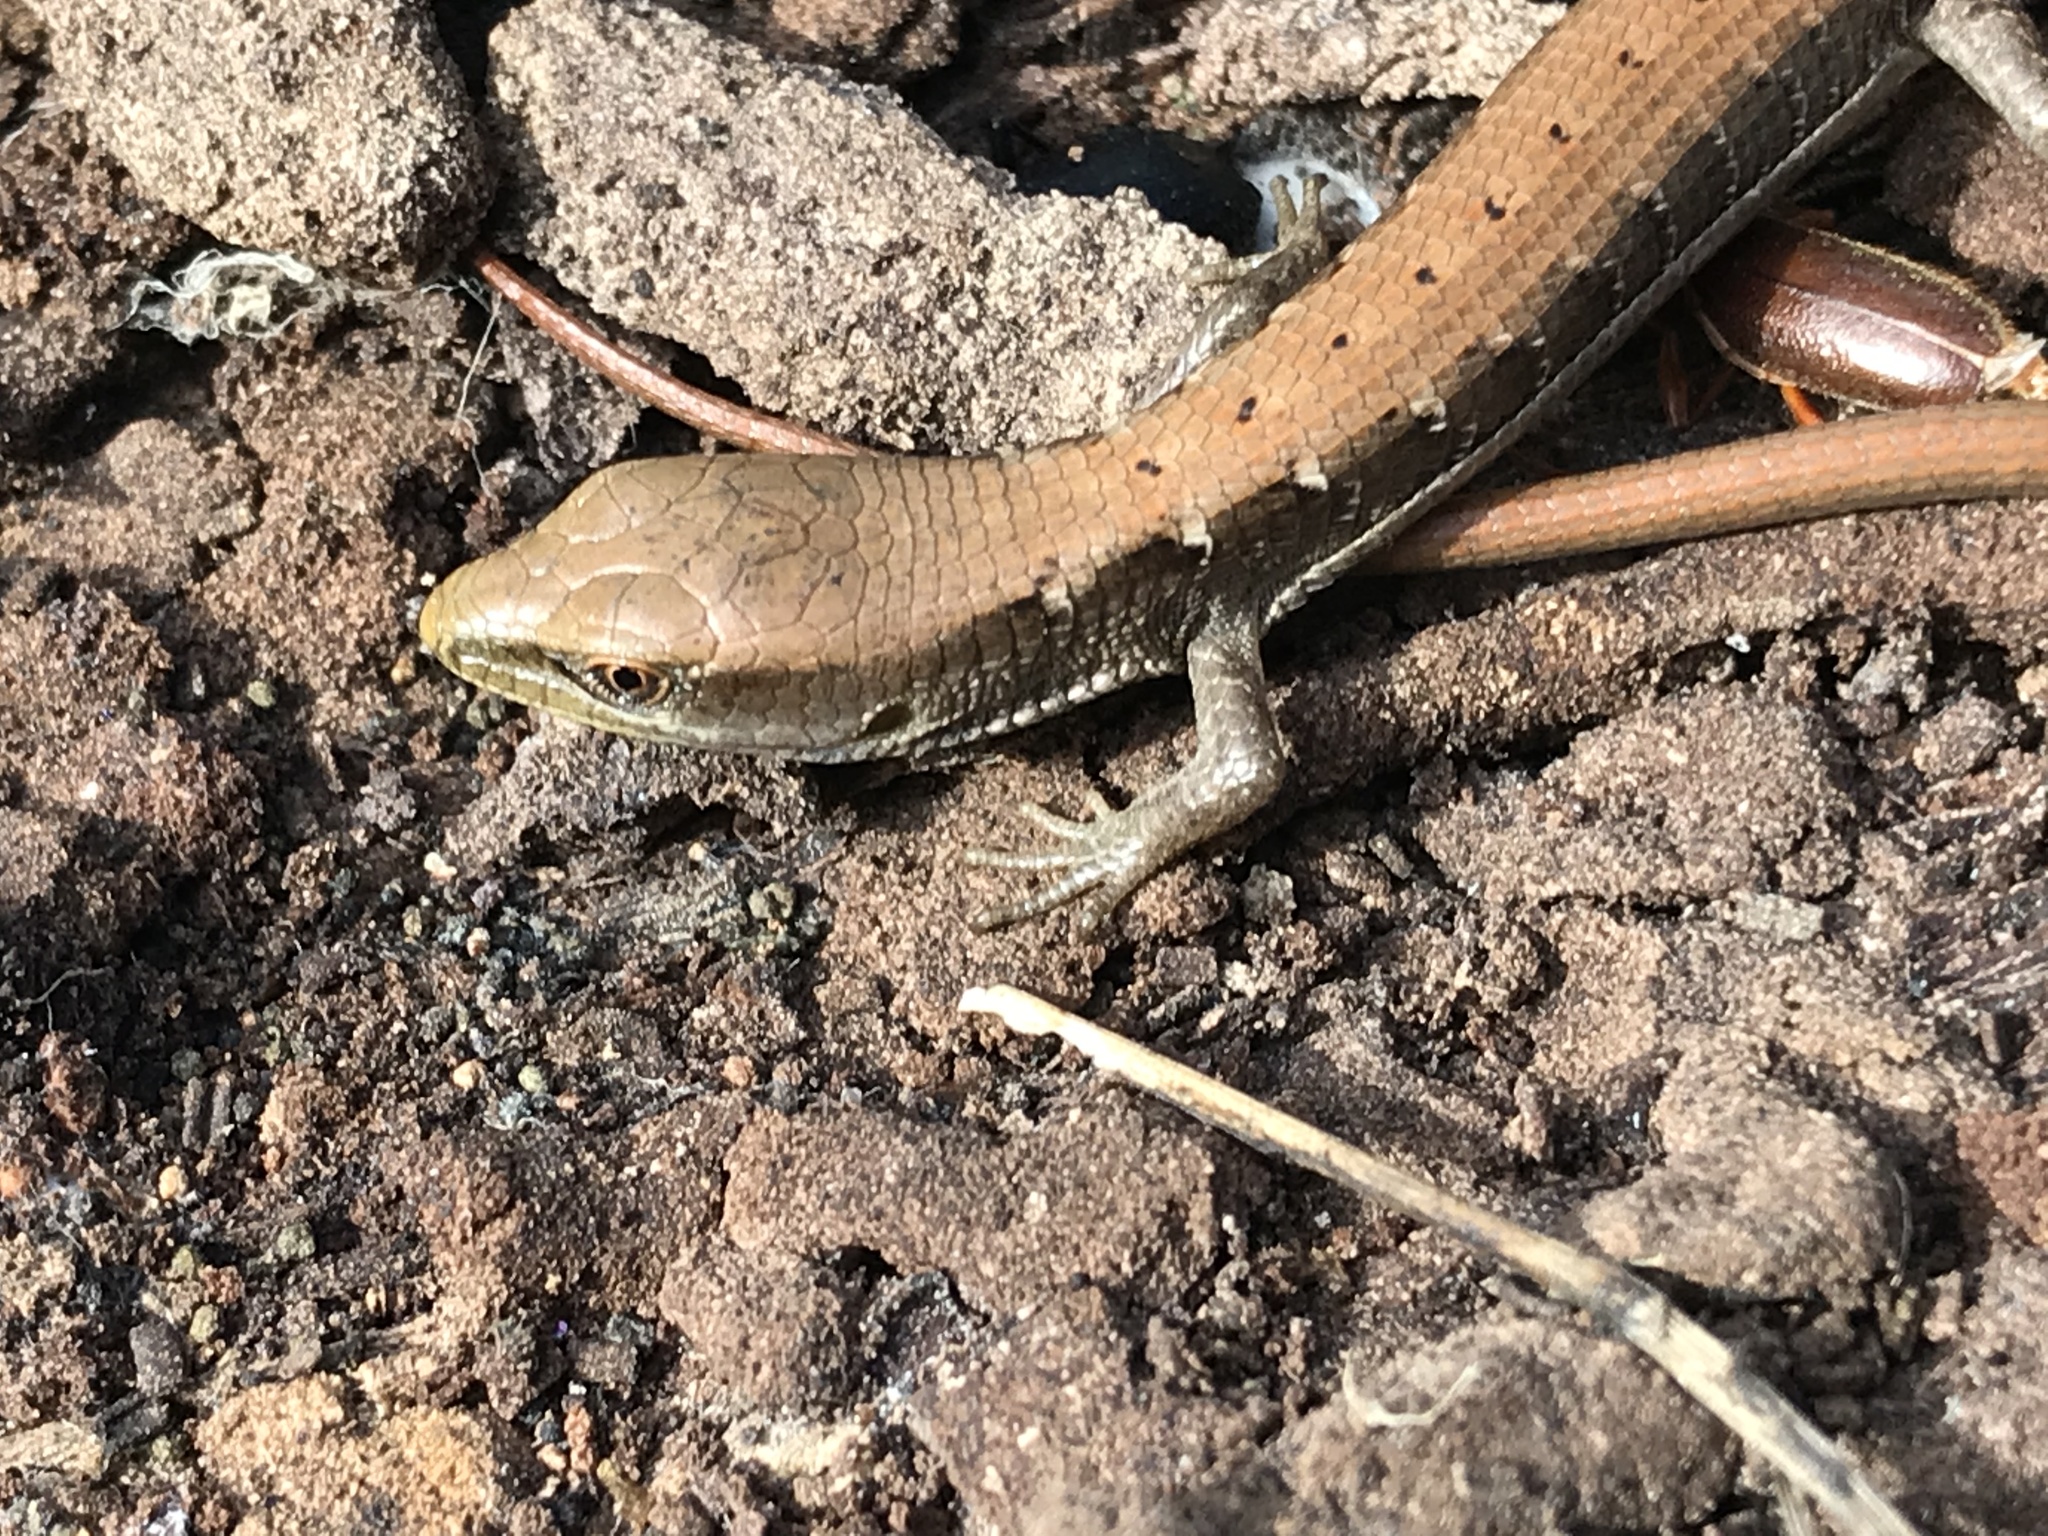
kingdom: Animalia
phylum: Chordata
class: Squamata
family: Anguidae
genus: Elgaria
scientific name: Elgaria multicarinata
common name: Southern alligator lizard
